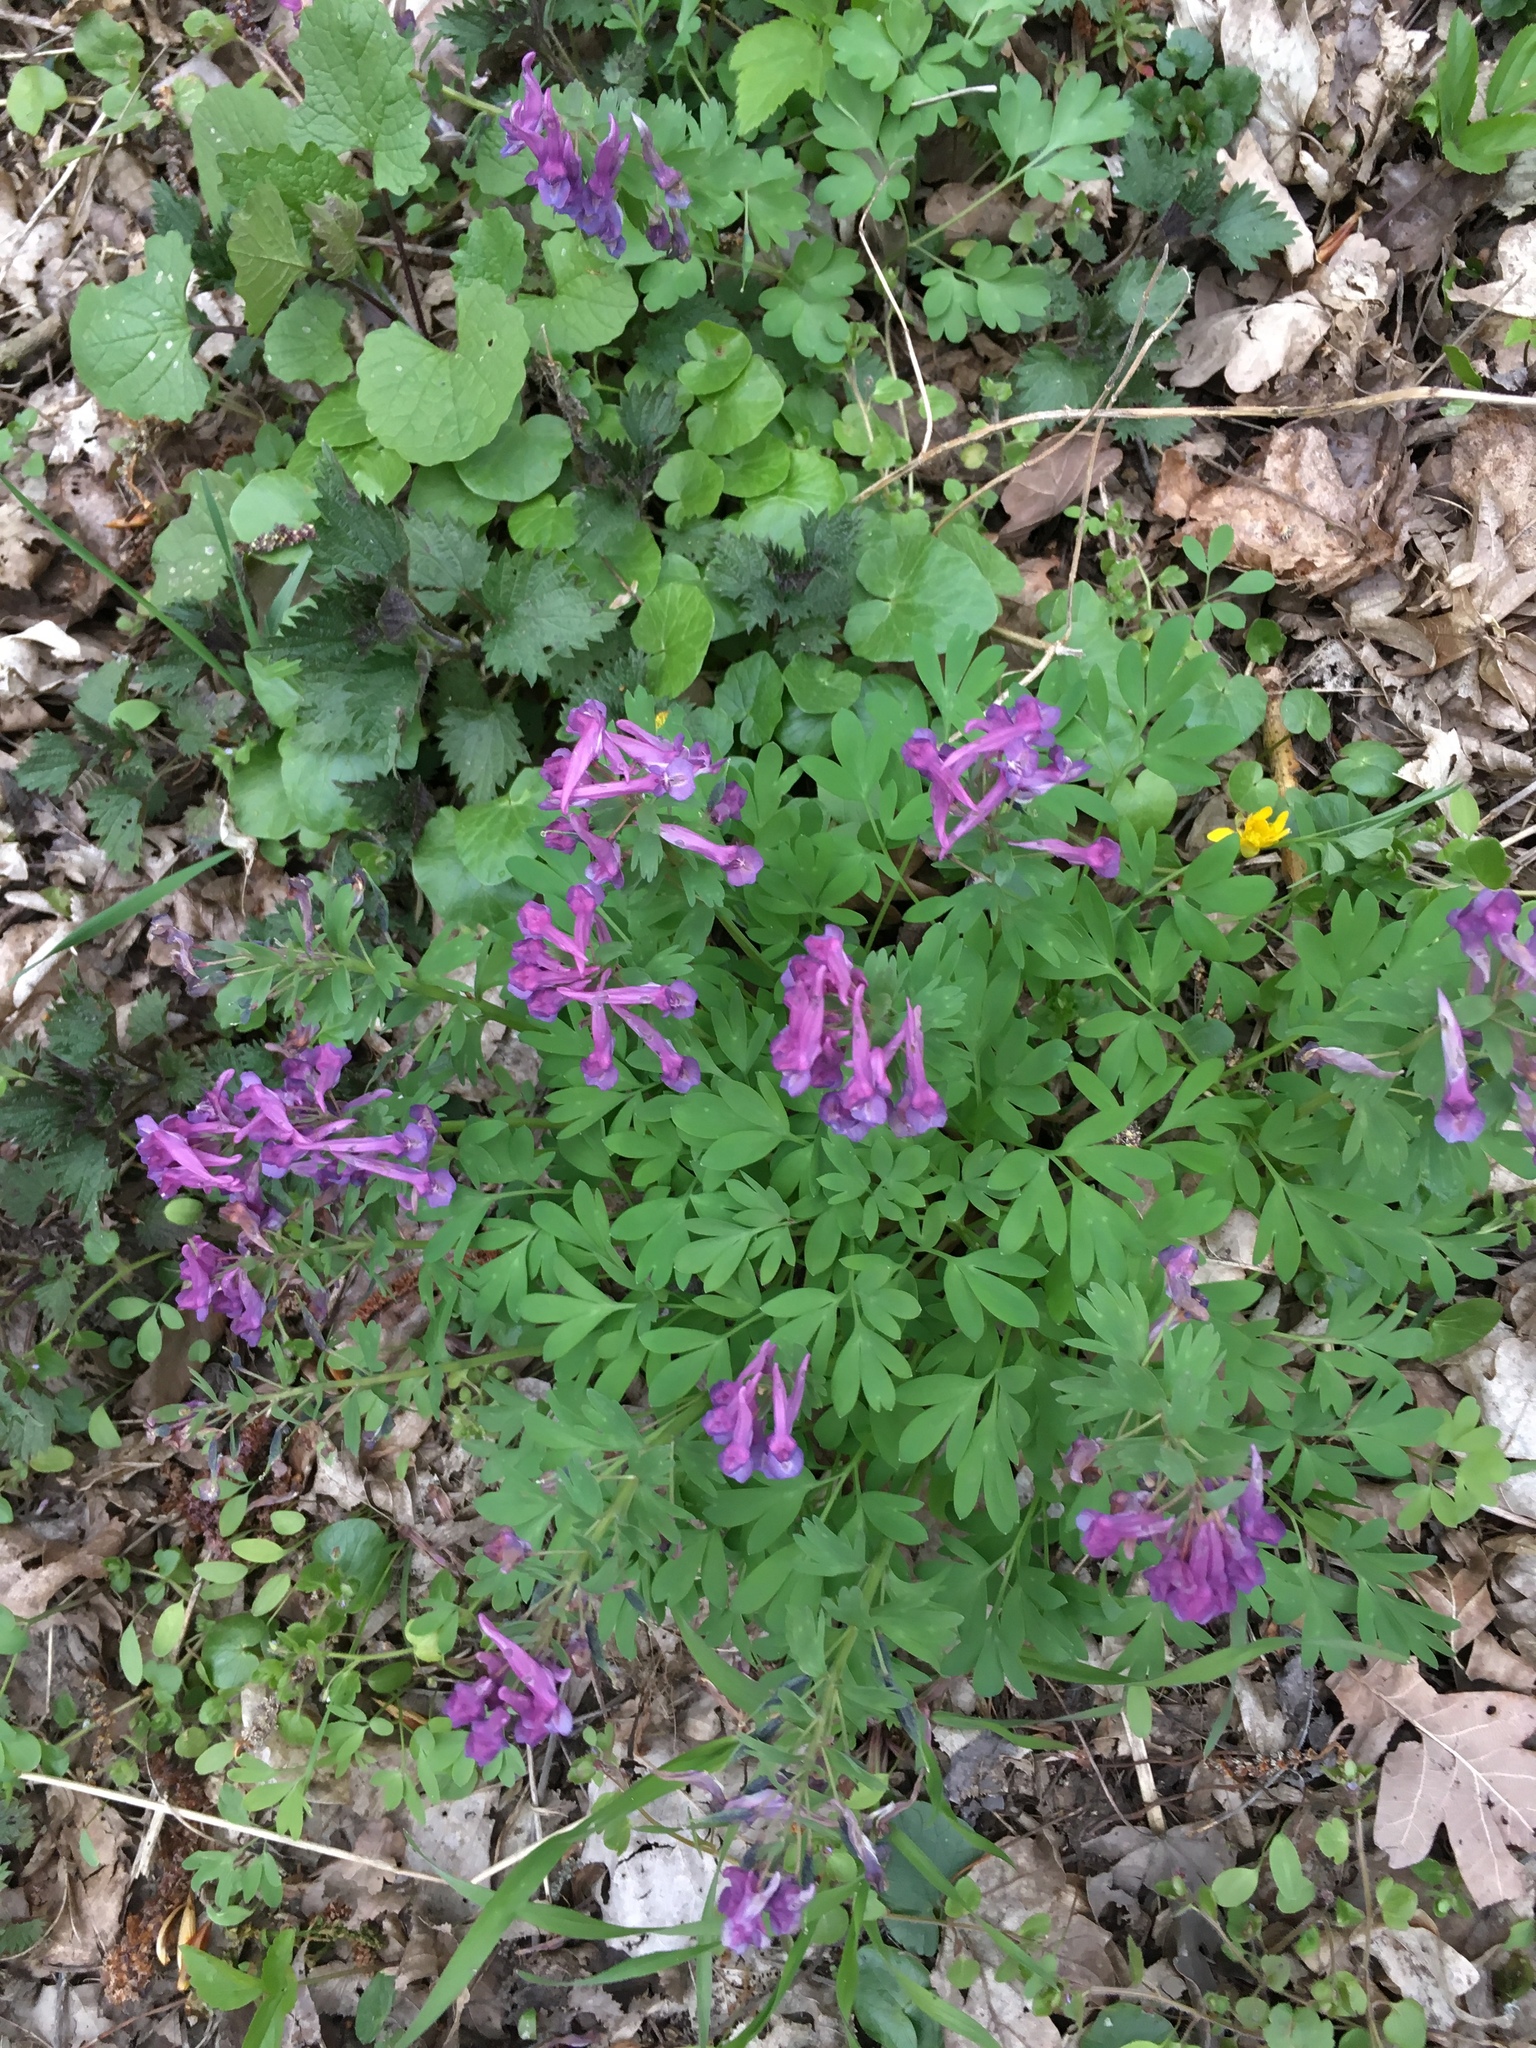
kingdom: Plantae
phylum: Tracheophyta
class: Magnoliopsida
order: Ranunculales
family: Papaveraceae
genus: Corydalis
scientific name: Corydalis solida
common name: Bird-in-a-bush
